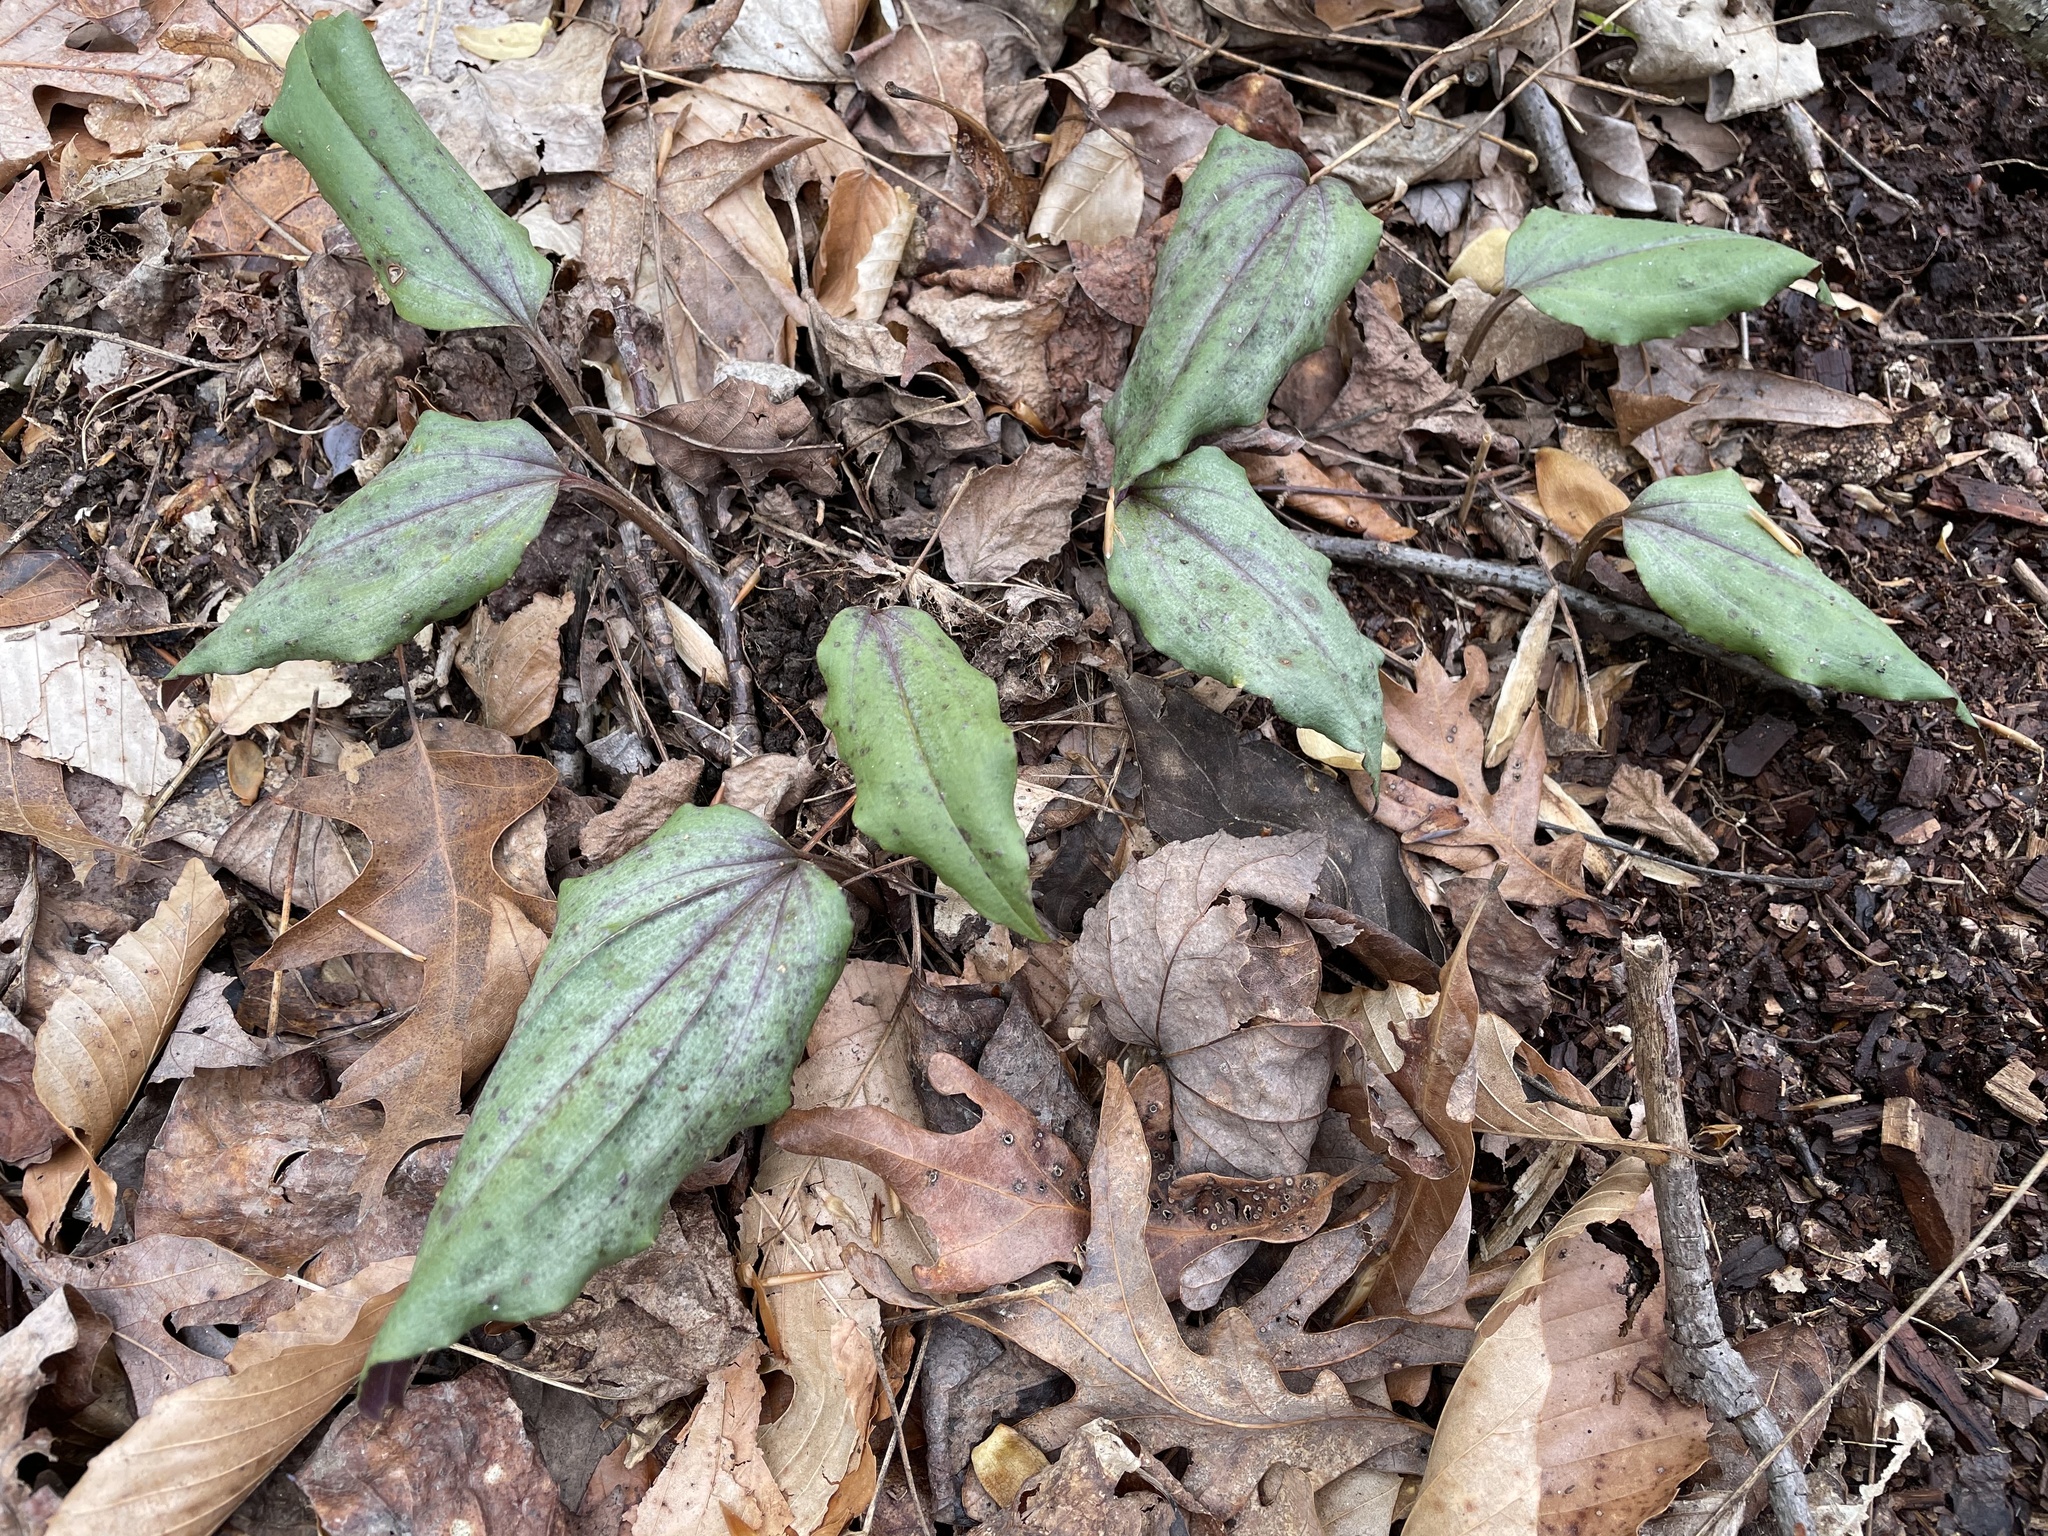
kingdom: Plantae
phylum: Tracheophyta
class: Liliopsida
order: Asparagales
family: Orchidaceae
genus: Tipularia
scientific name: Tipularia discolor
